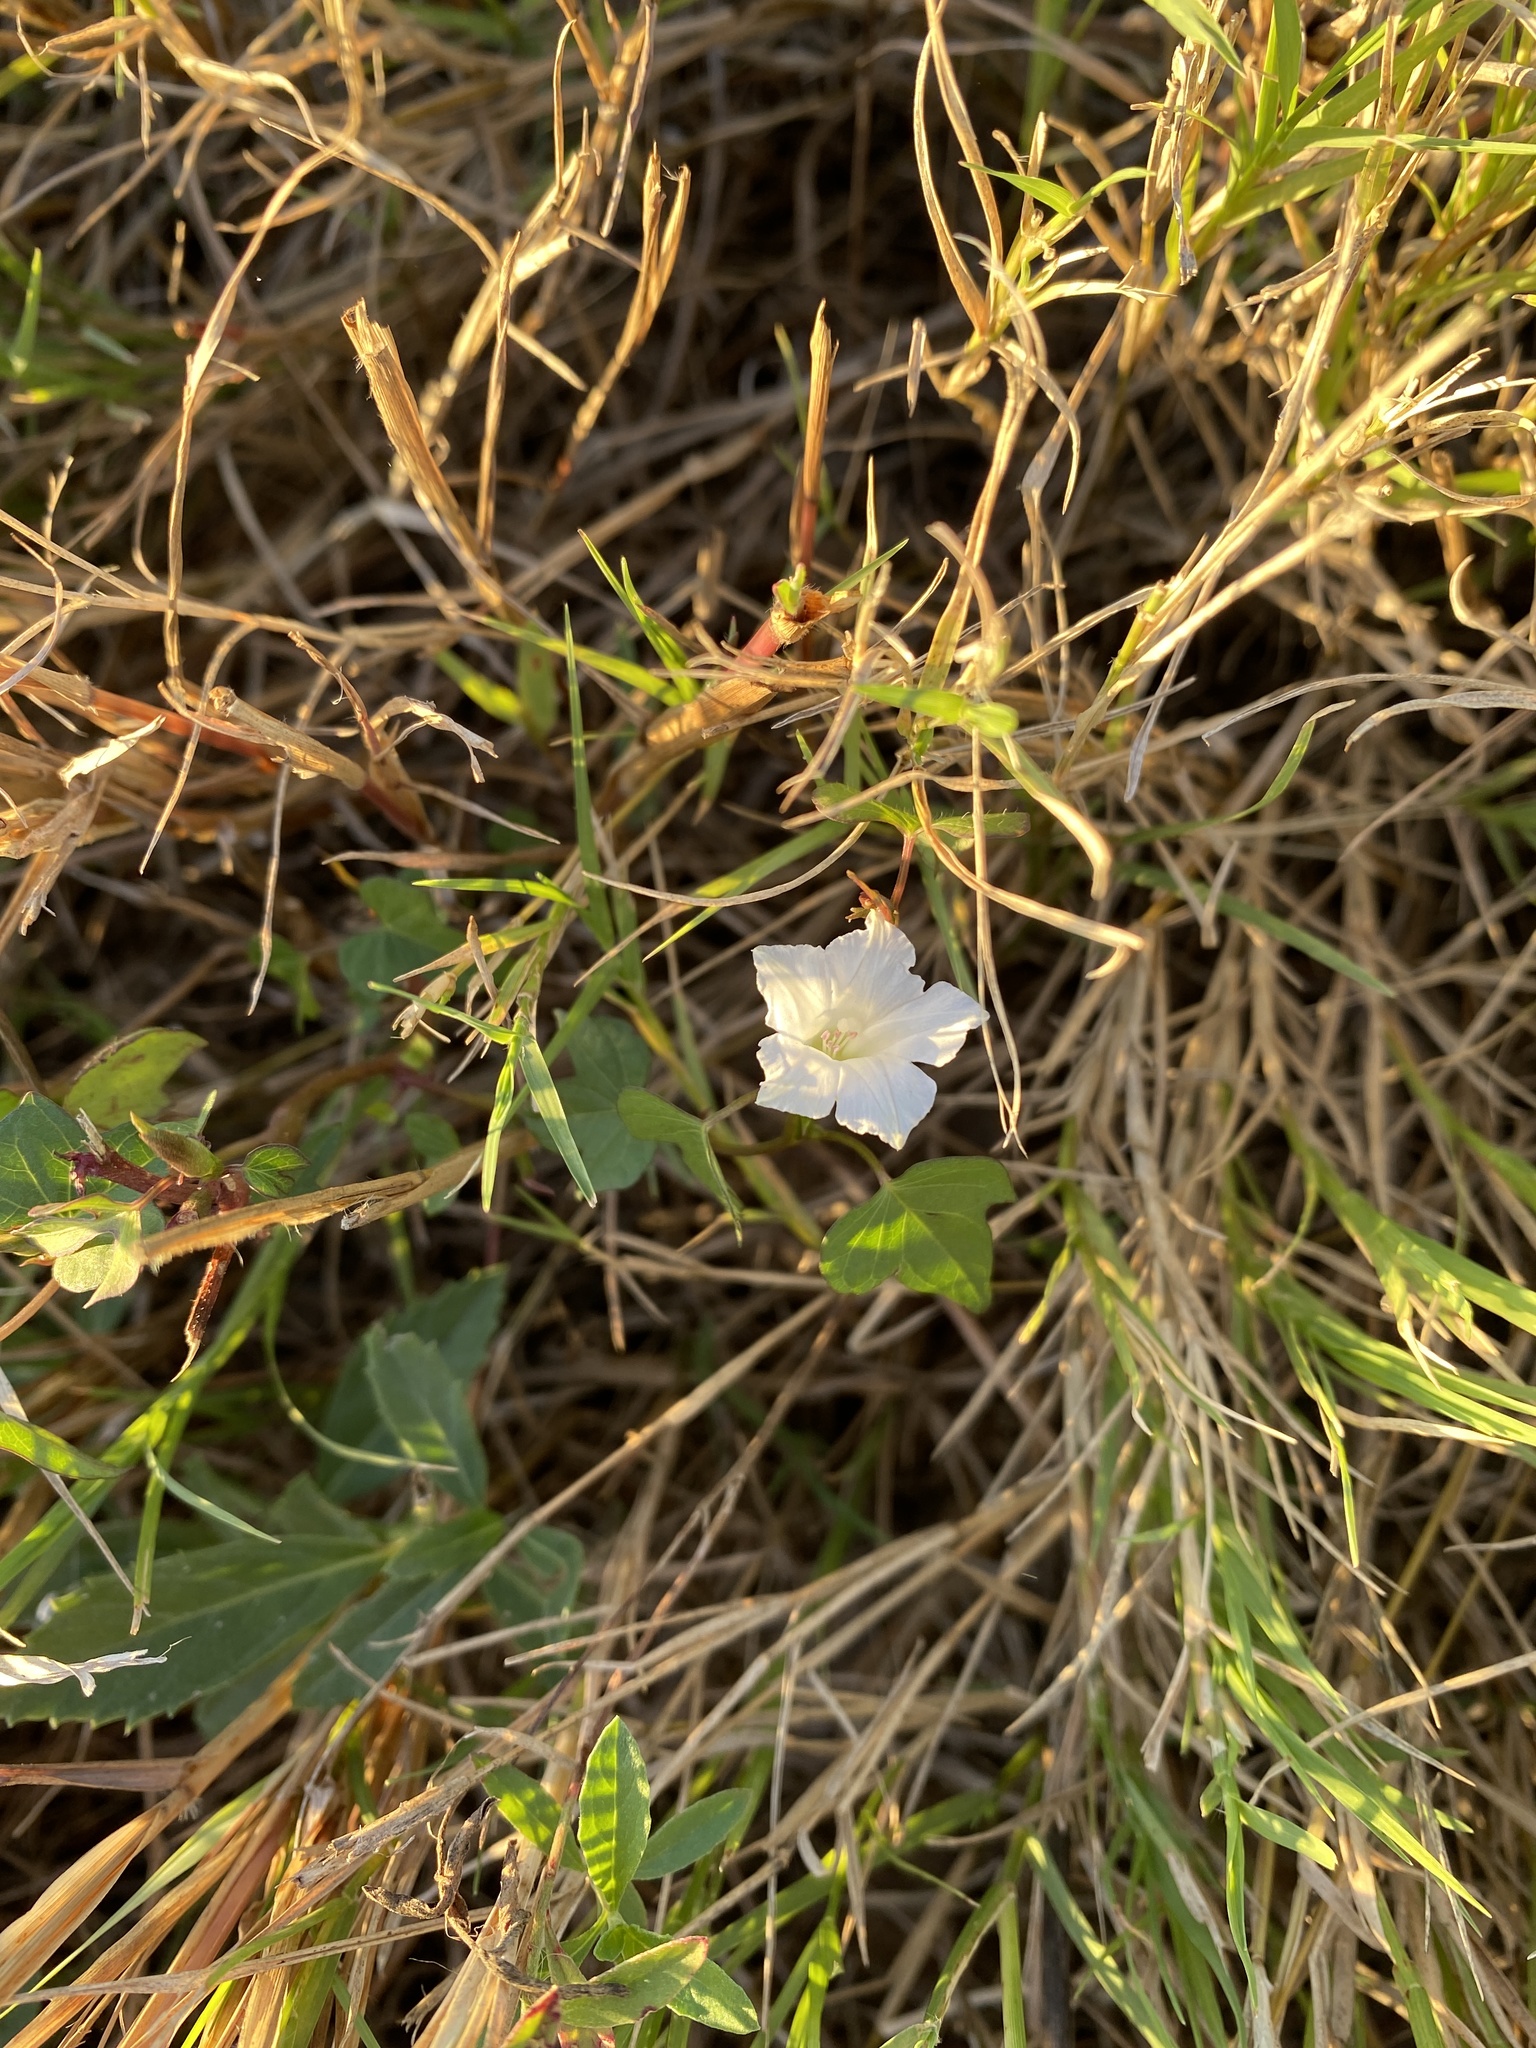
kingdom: Plantae
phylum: Tracheophyta
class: Magnoliopsida
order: Solanales
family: Convolvulaceae
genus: Ipomoea
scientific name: Ipomoea lacunosa
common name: White morning-glory
